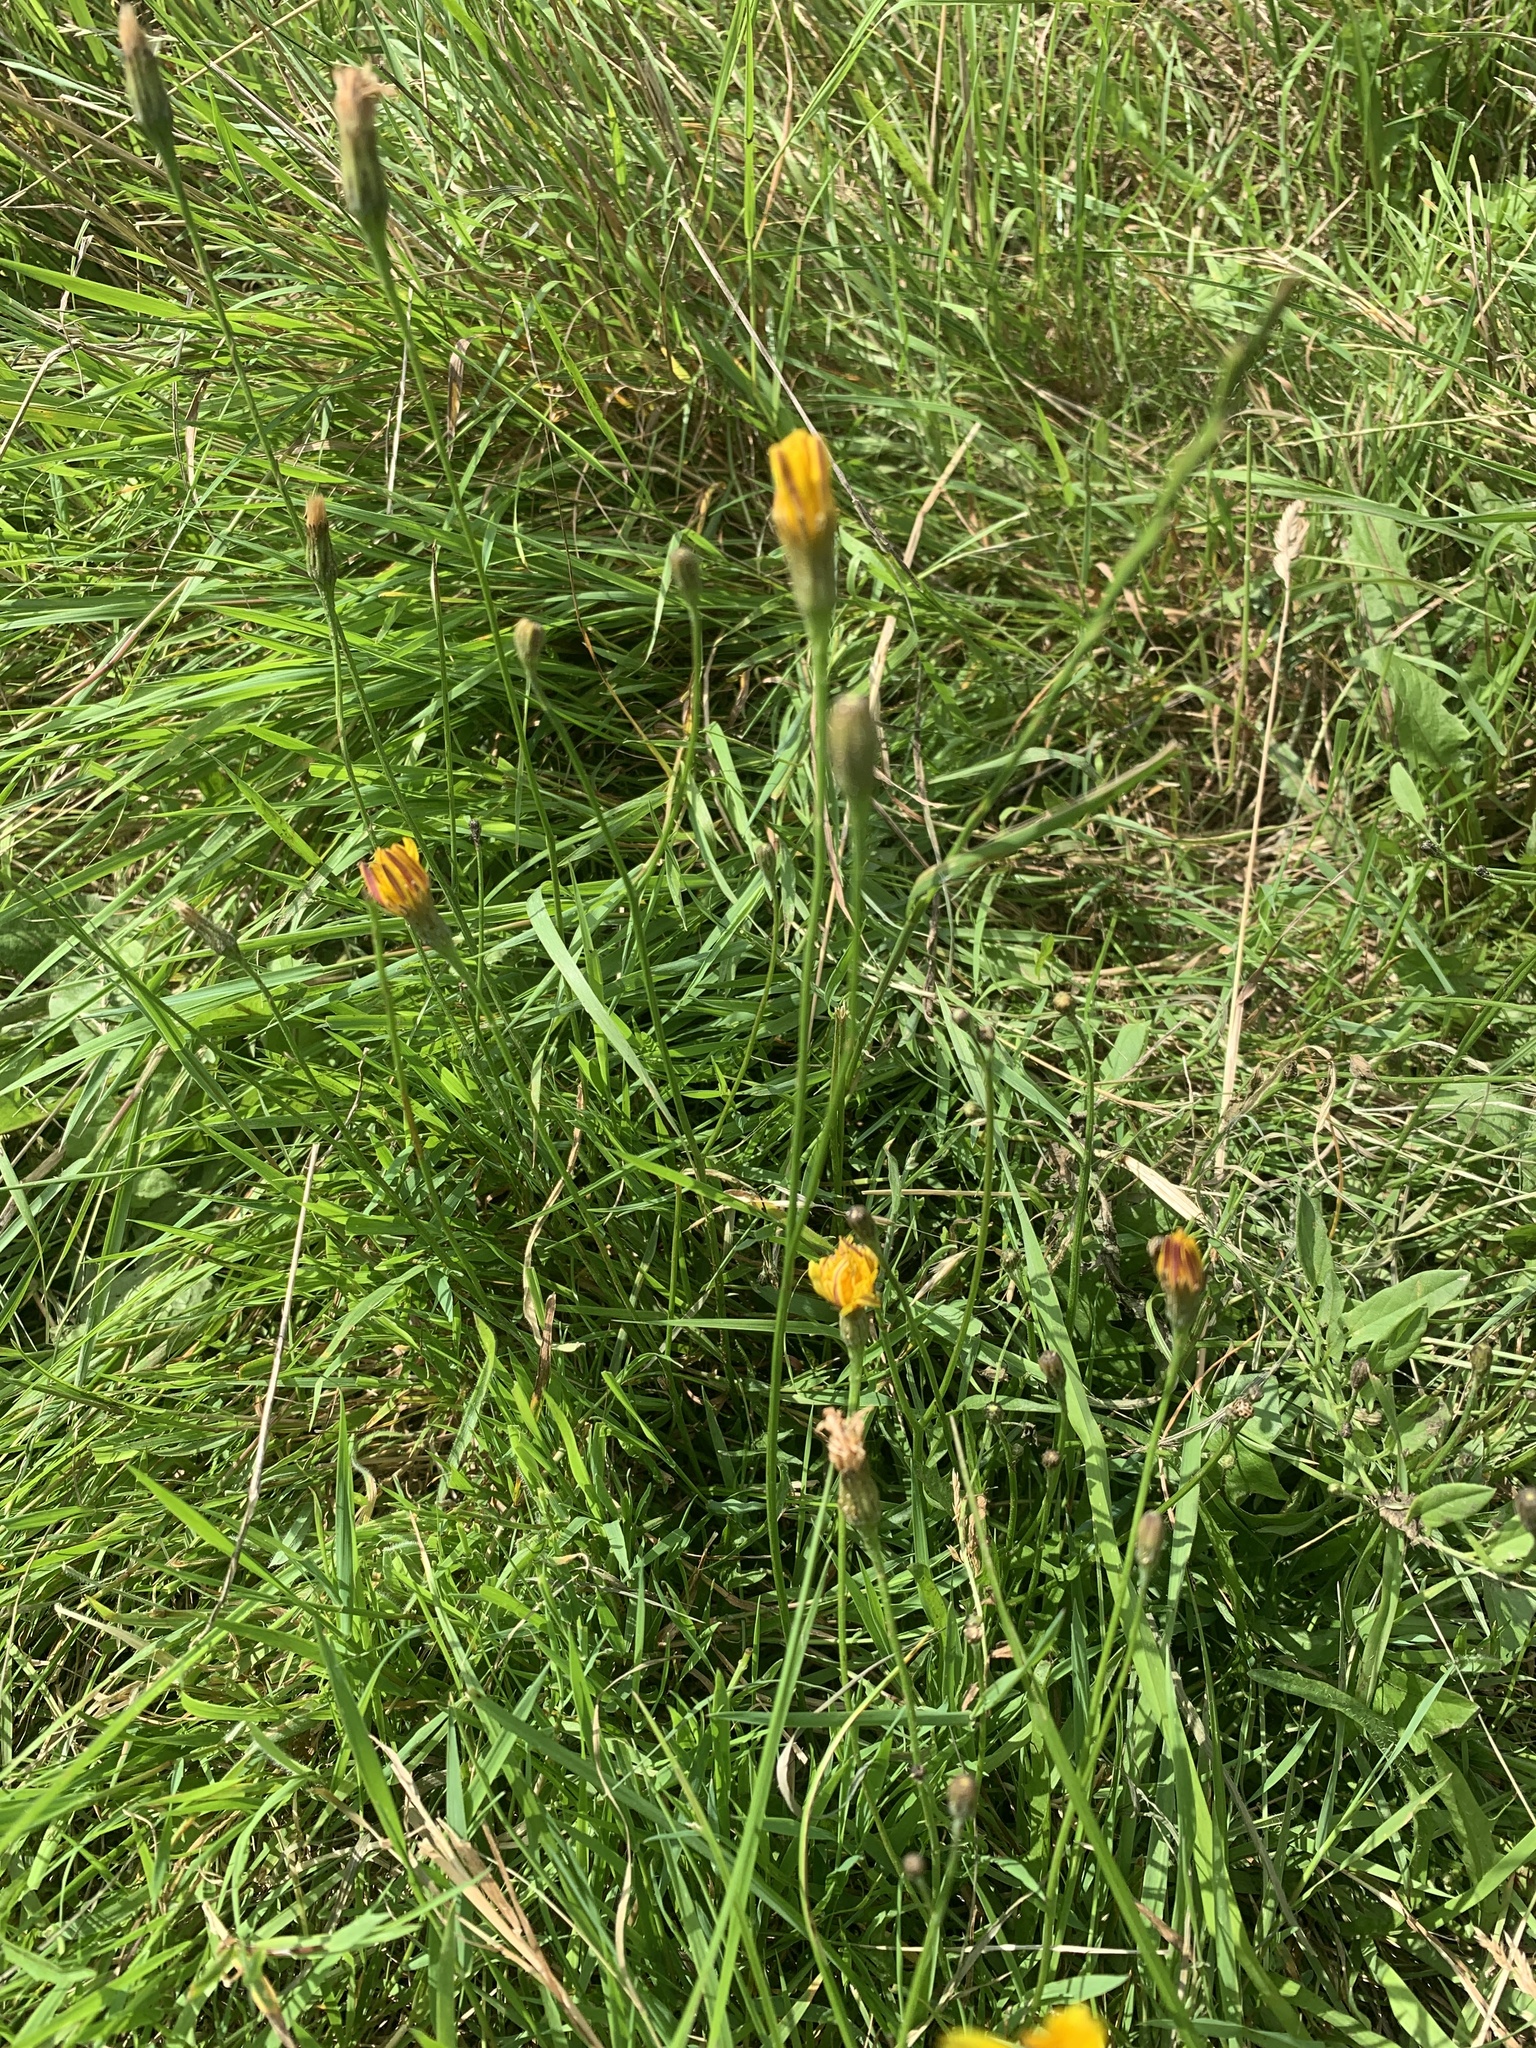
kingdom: Plantae
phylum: Tracheophyta
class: Magnoliopsida
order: Asterales
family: Asteraceae
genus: Hypochaeris
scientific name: Hypochaeris radicata
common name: Flatweed
